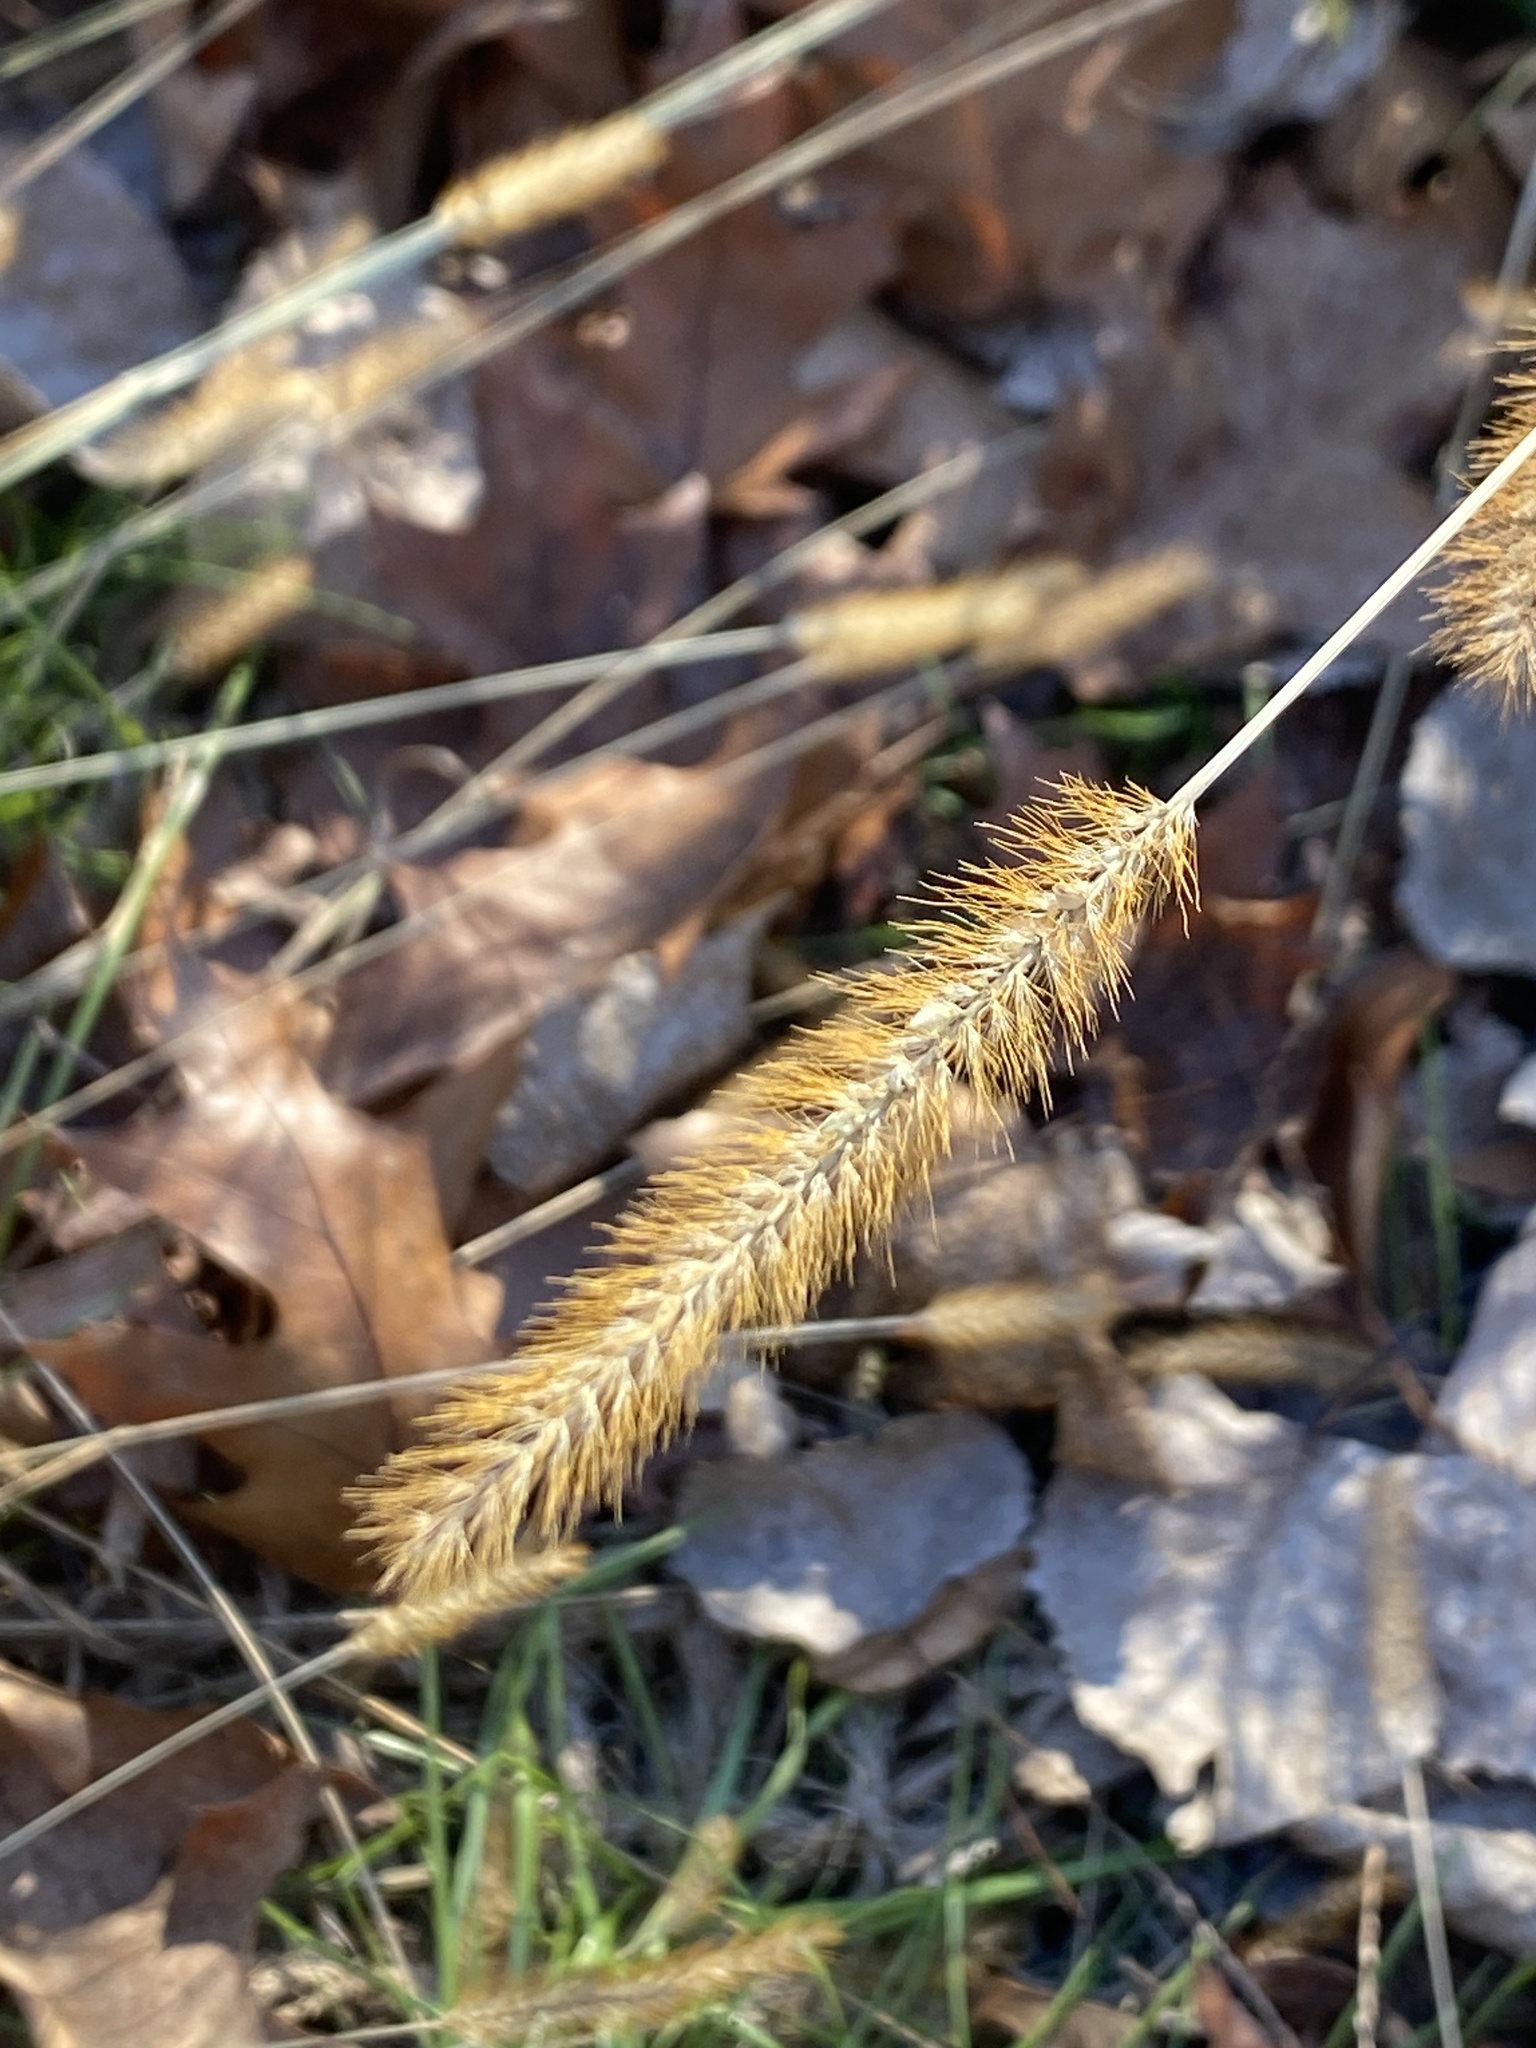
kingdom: Plantae
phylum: Tracheophyta
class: Liliopsida
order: Poales
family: Poaceae
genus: Setaria
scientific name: Setaria pumila
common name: Yellow bristle-grass
